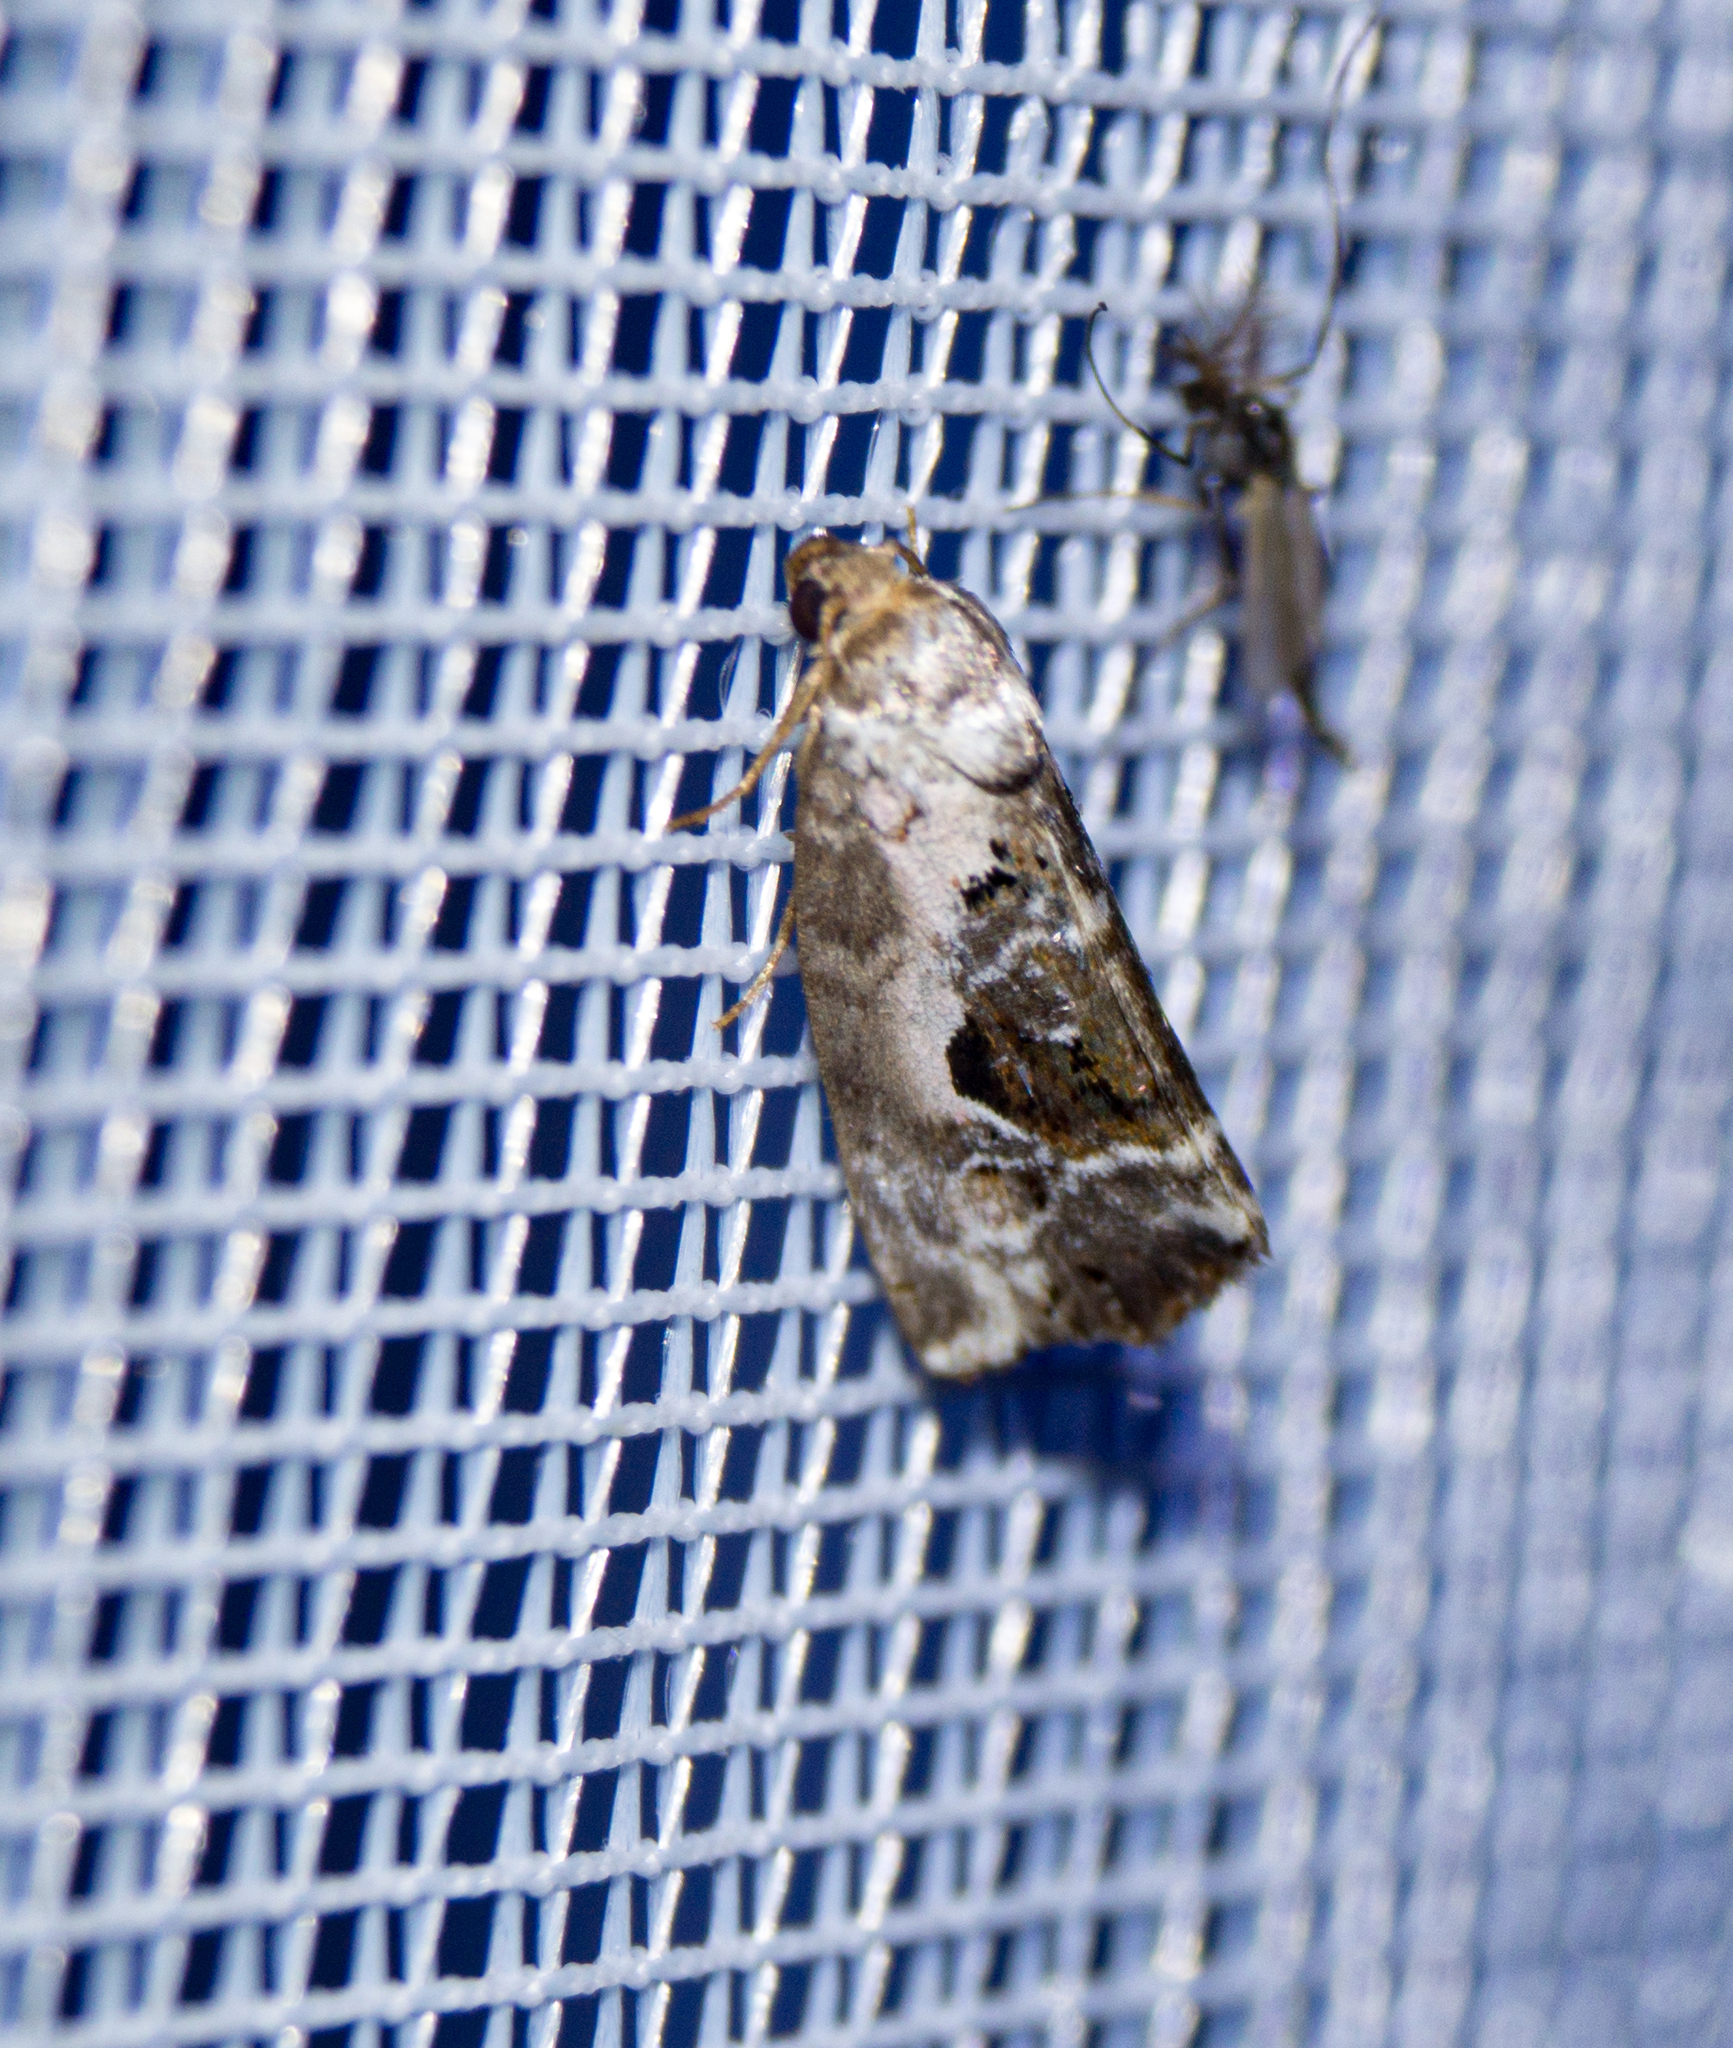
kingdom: Animalia
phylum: Arthropoda
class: Insecta
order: Lepidoptera
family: Noctuidae
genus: Elaphria
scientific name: Elaphria venustula
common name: Rosy marbled
